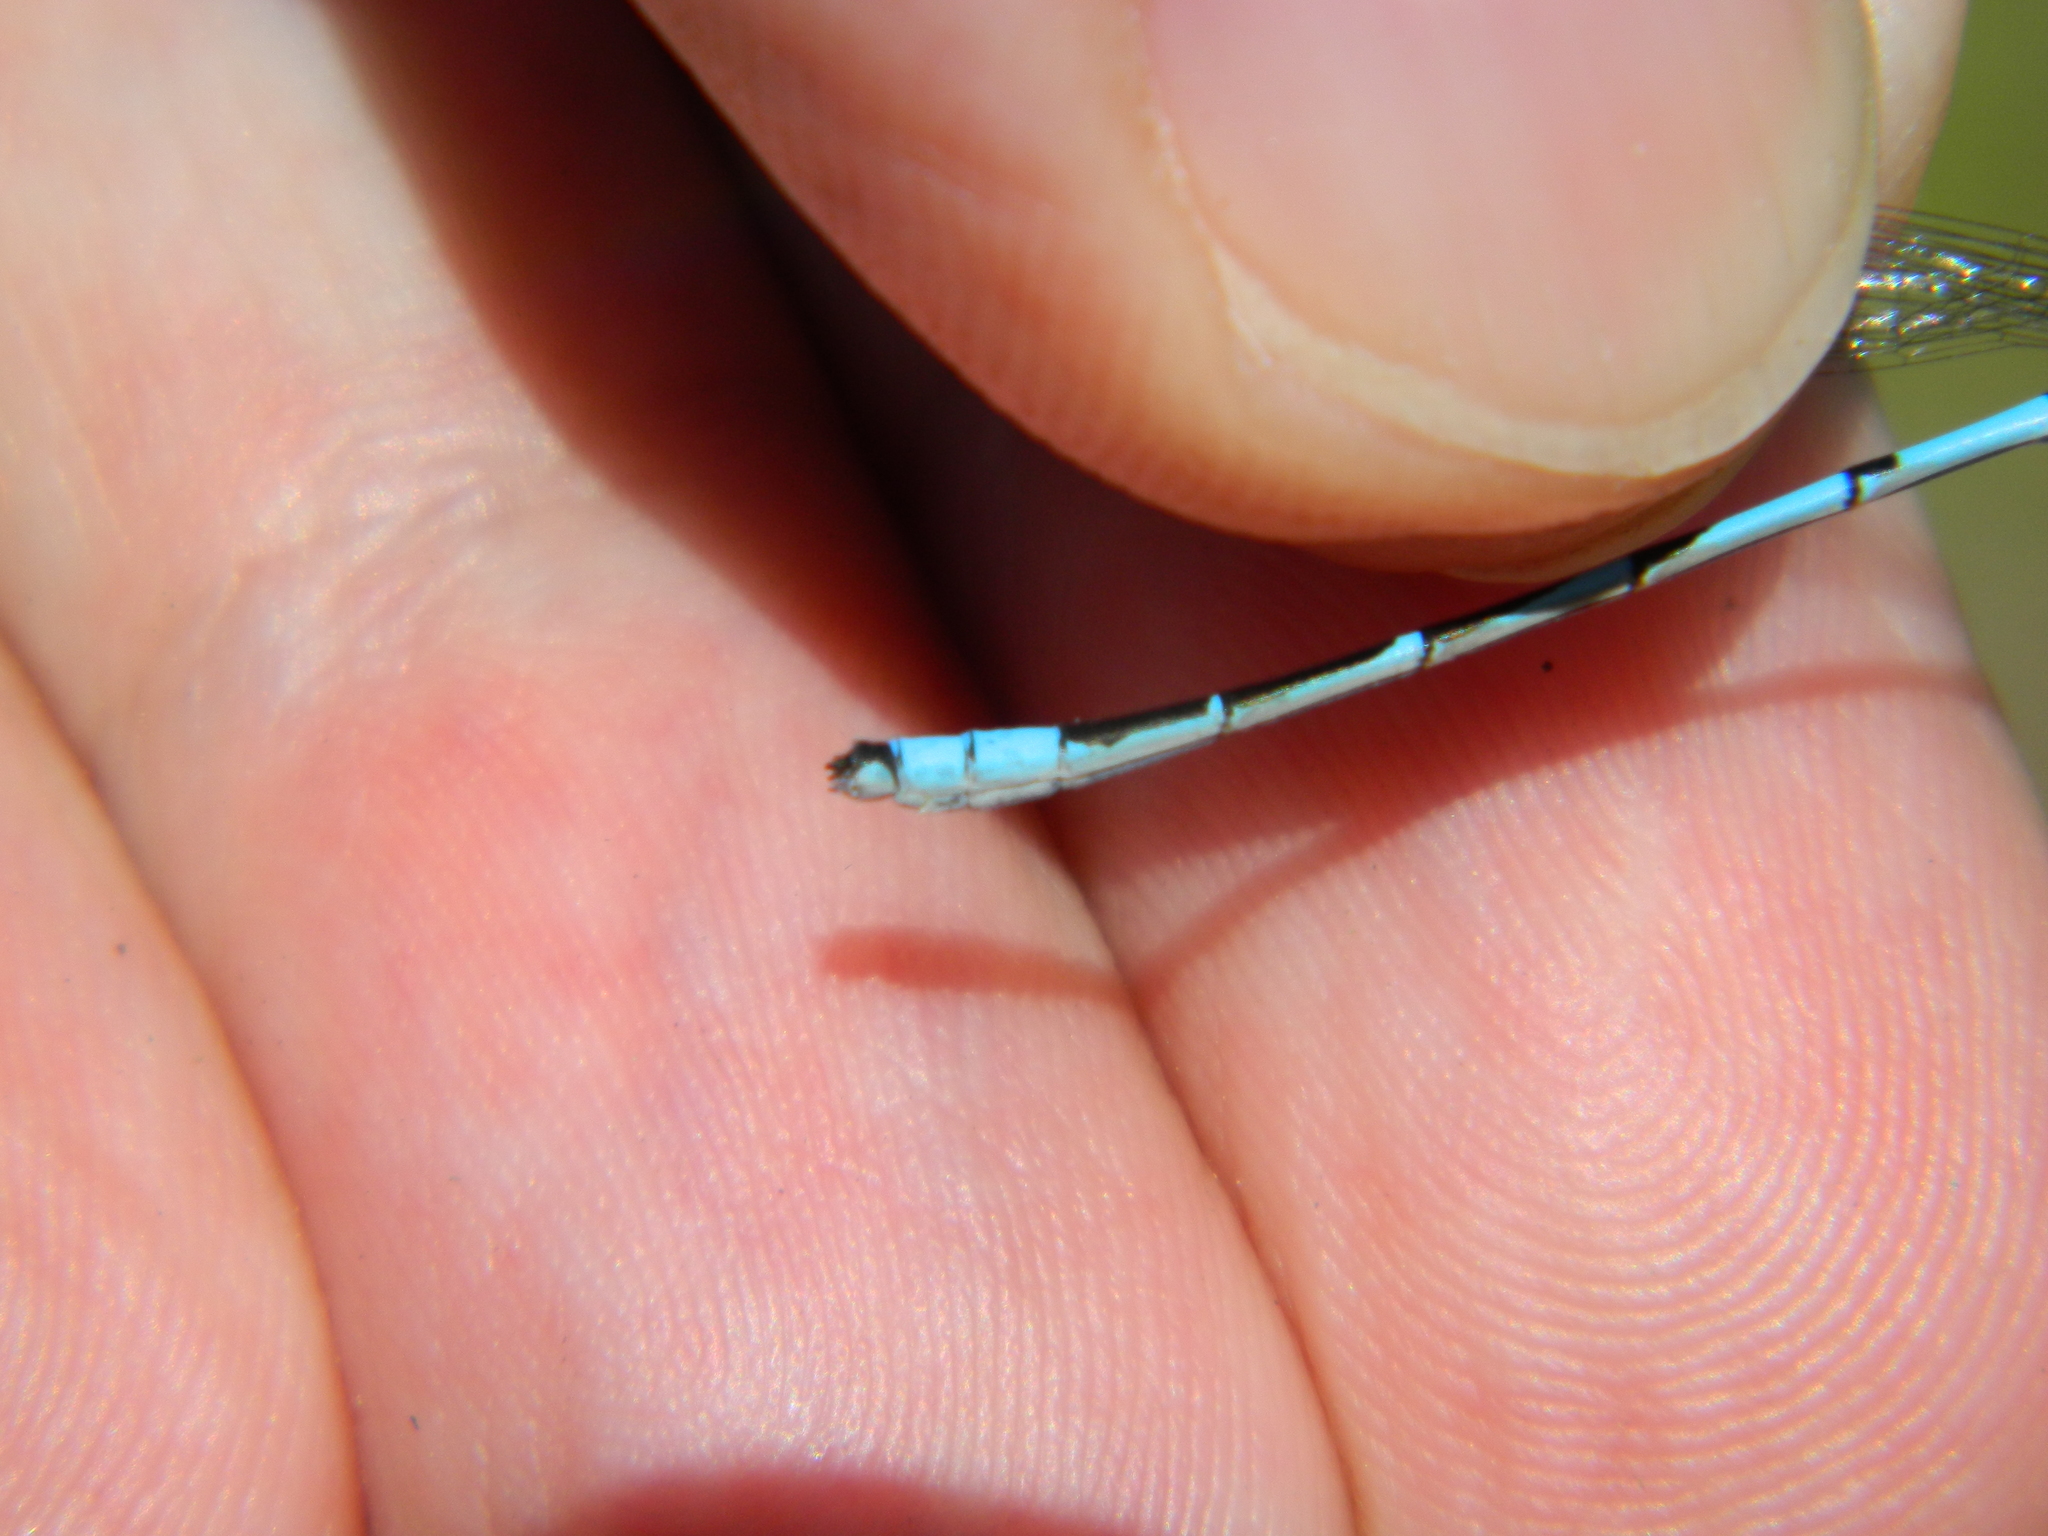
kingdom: Animalia
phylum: Arthropoda
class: Insecta
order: Odonata
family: Coenagrionidae
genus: Enallagma
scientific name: Enallagma ebrium
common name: Marsh bluet
